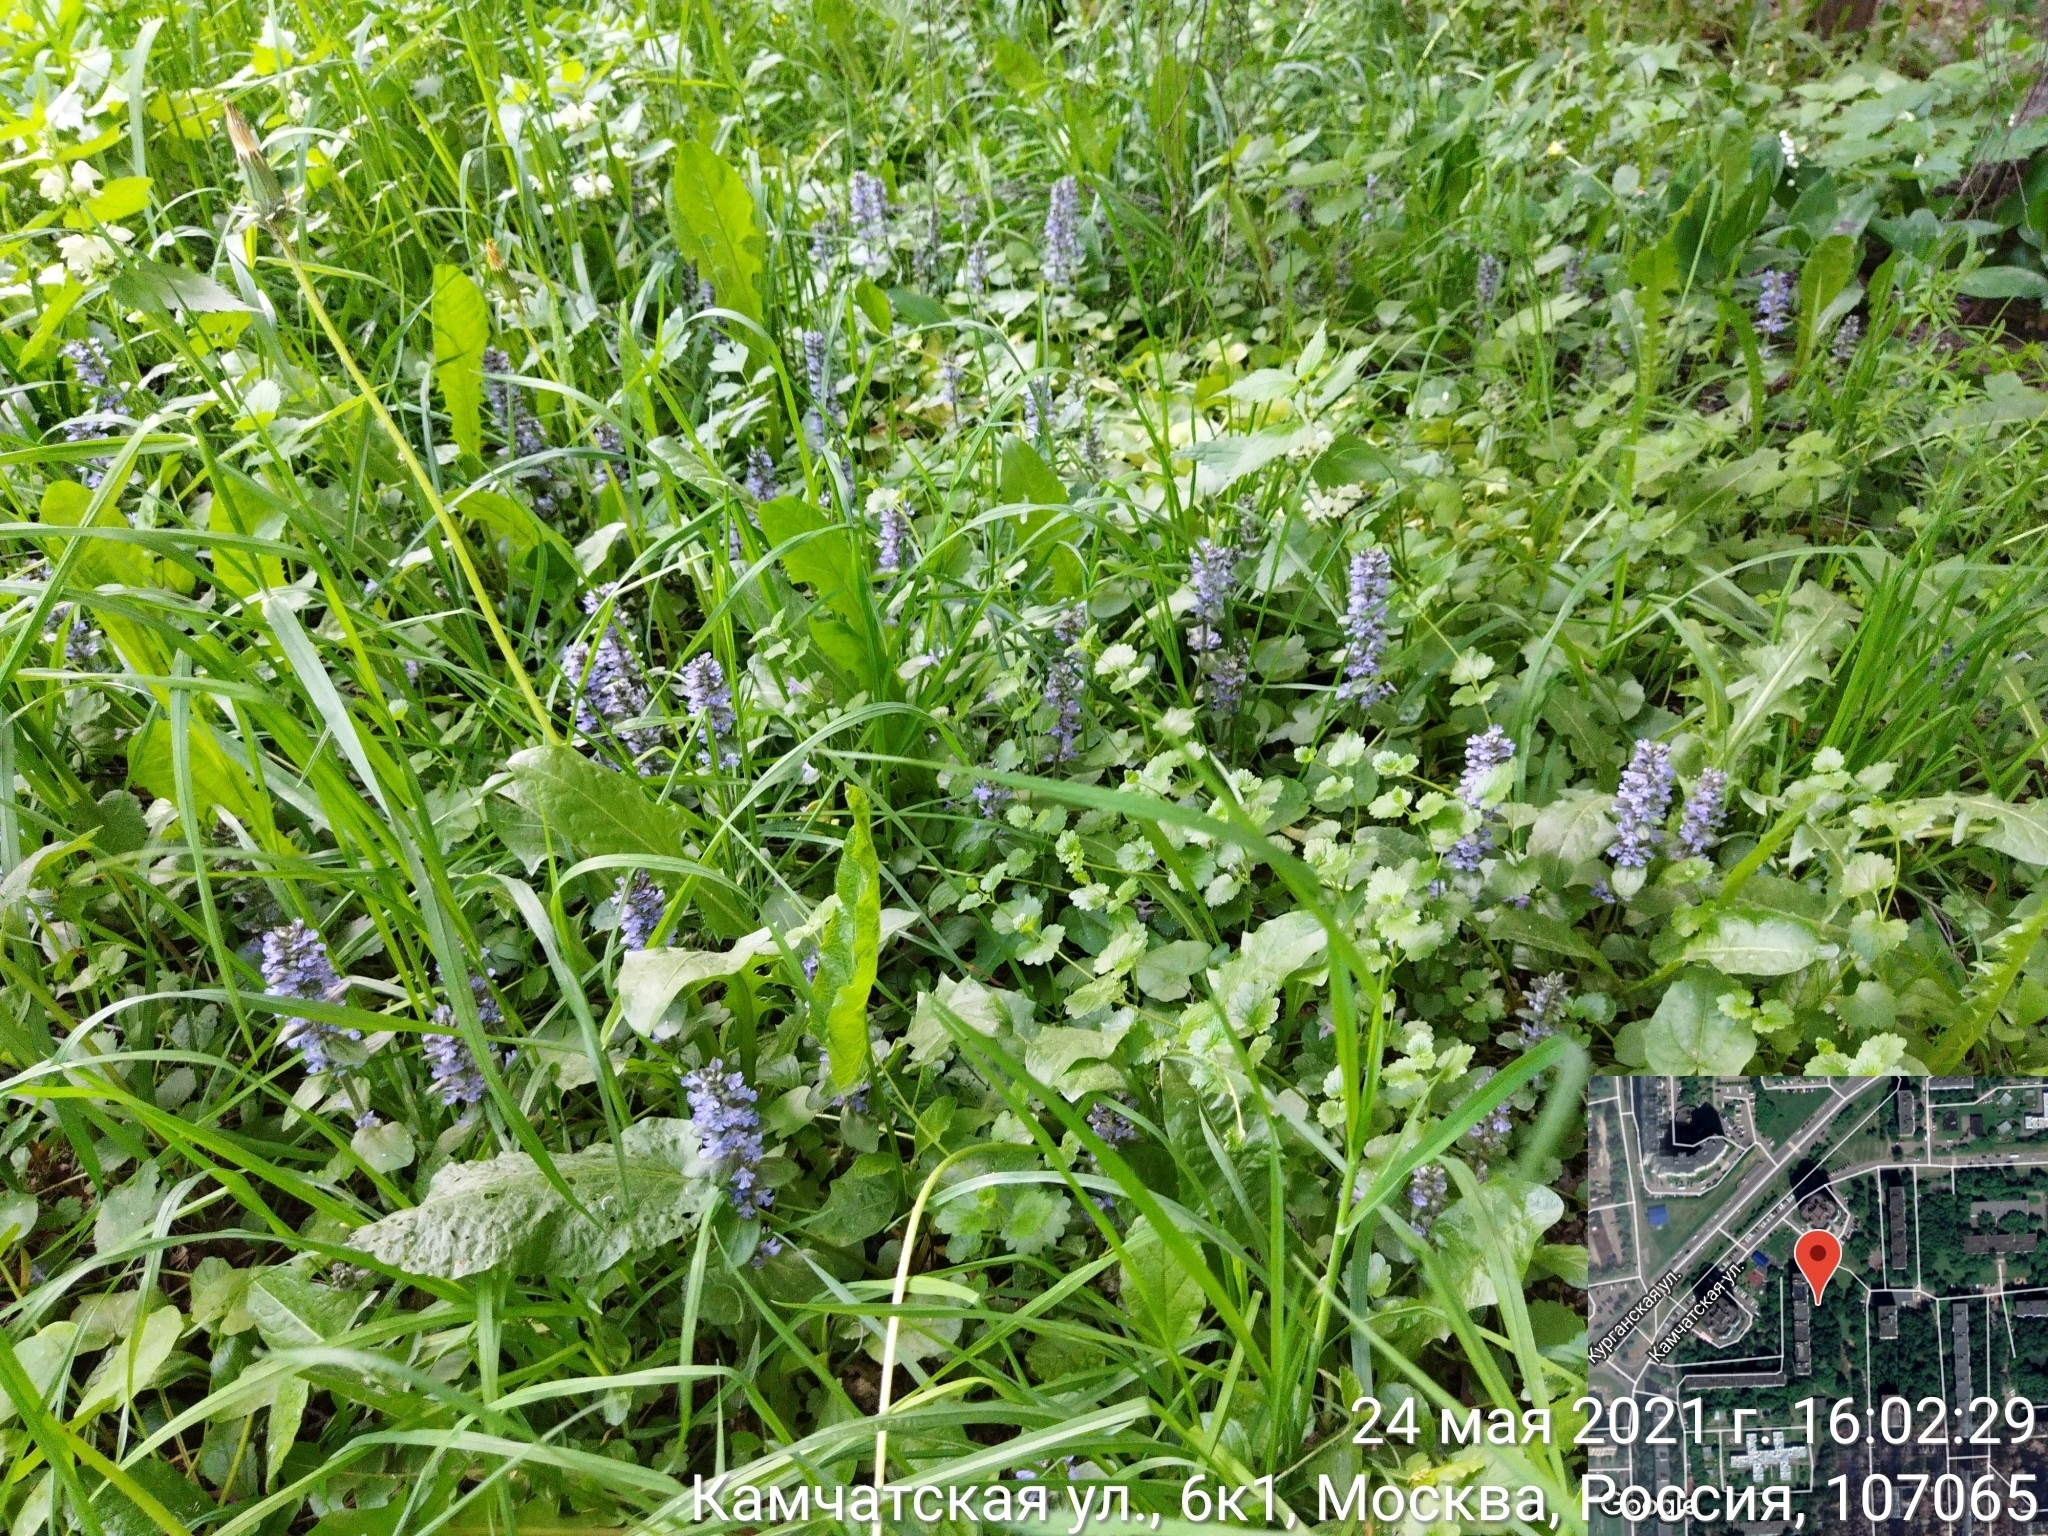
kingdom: Plantae
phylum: Tracheophyta
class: Magnoliopsida
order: Lamiales
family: Lamiaceae
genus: Ajuga
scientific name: Ajuga reptans
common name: Bugle
